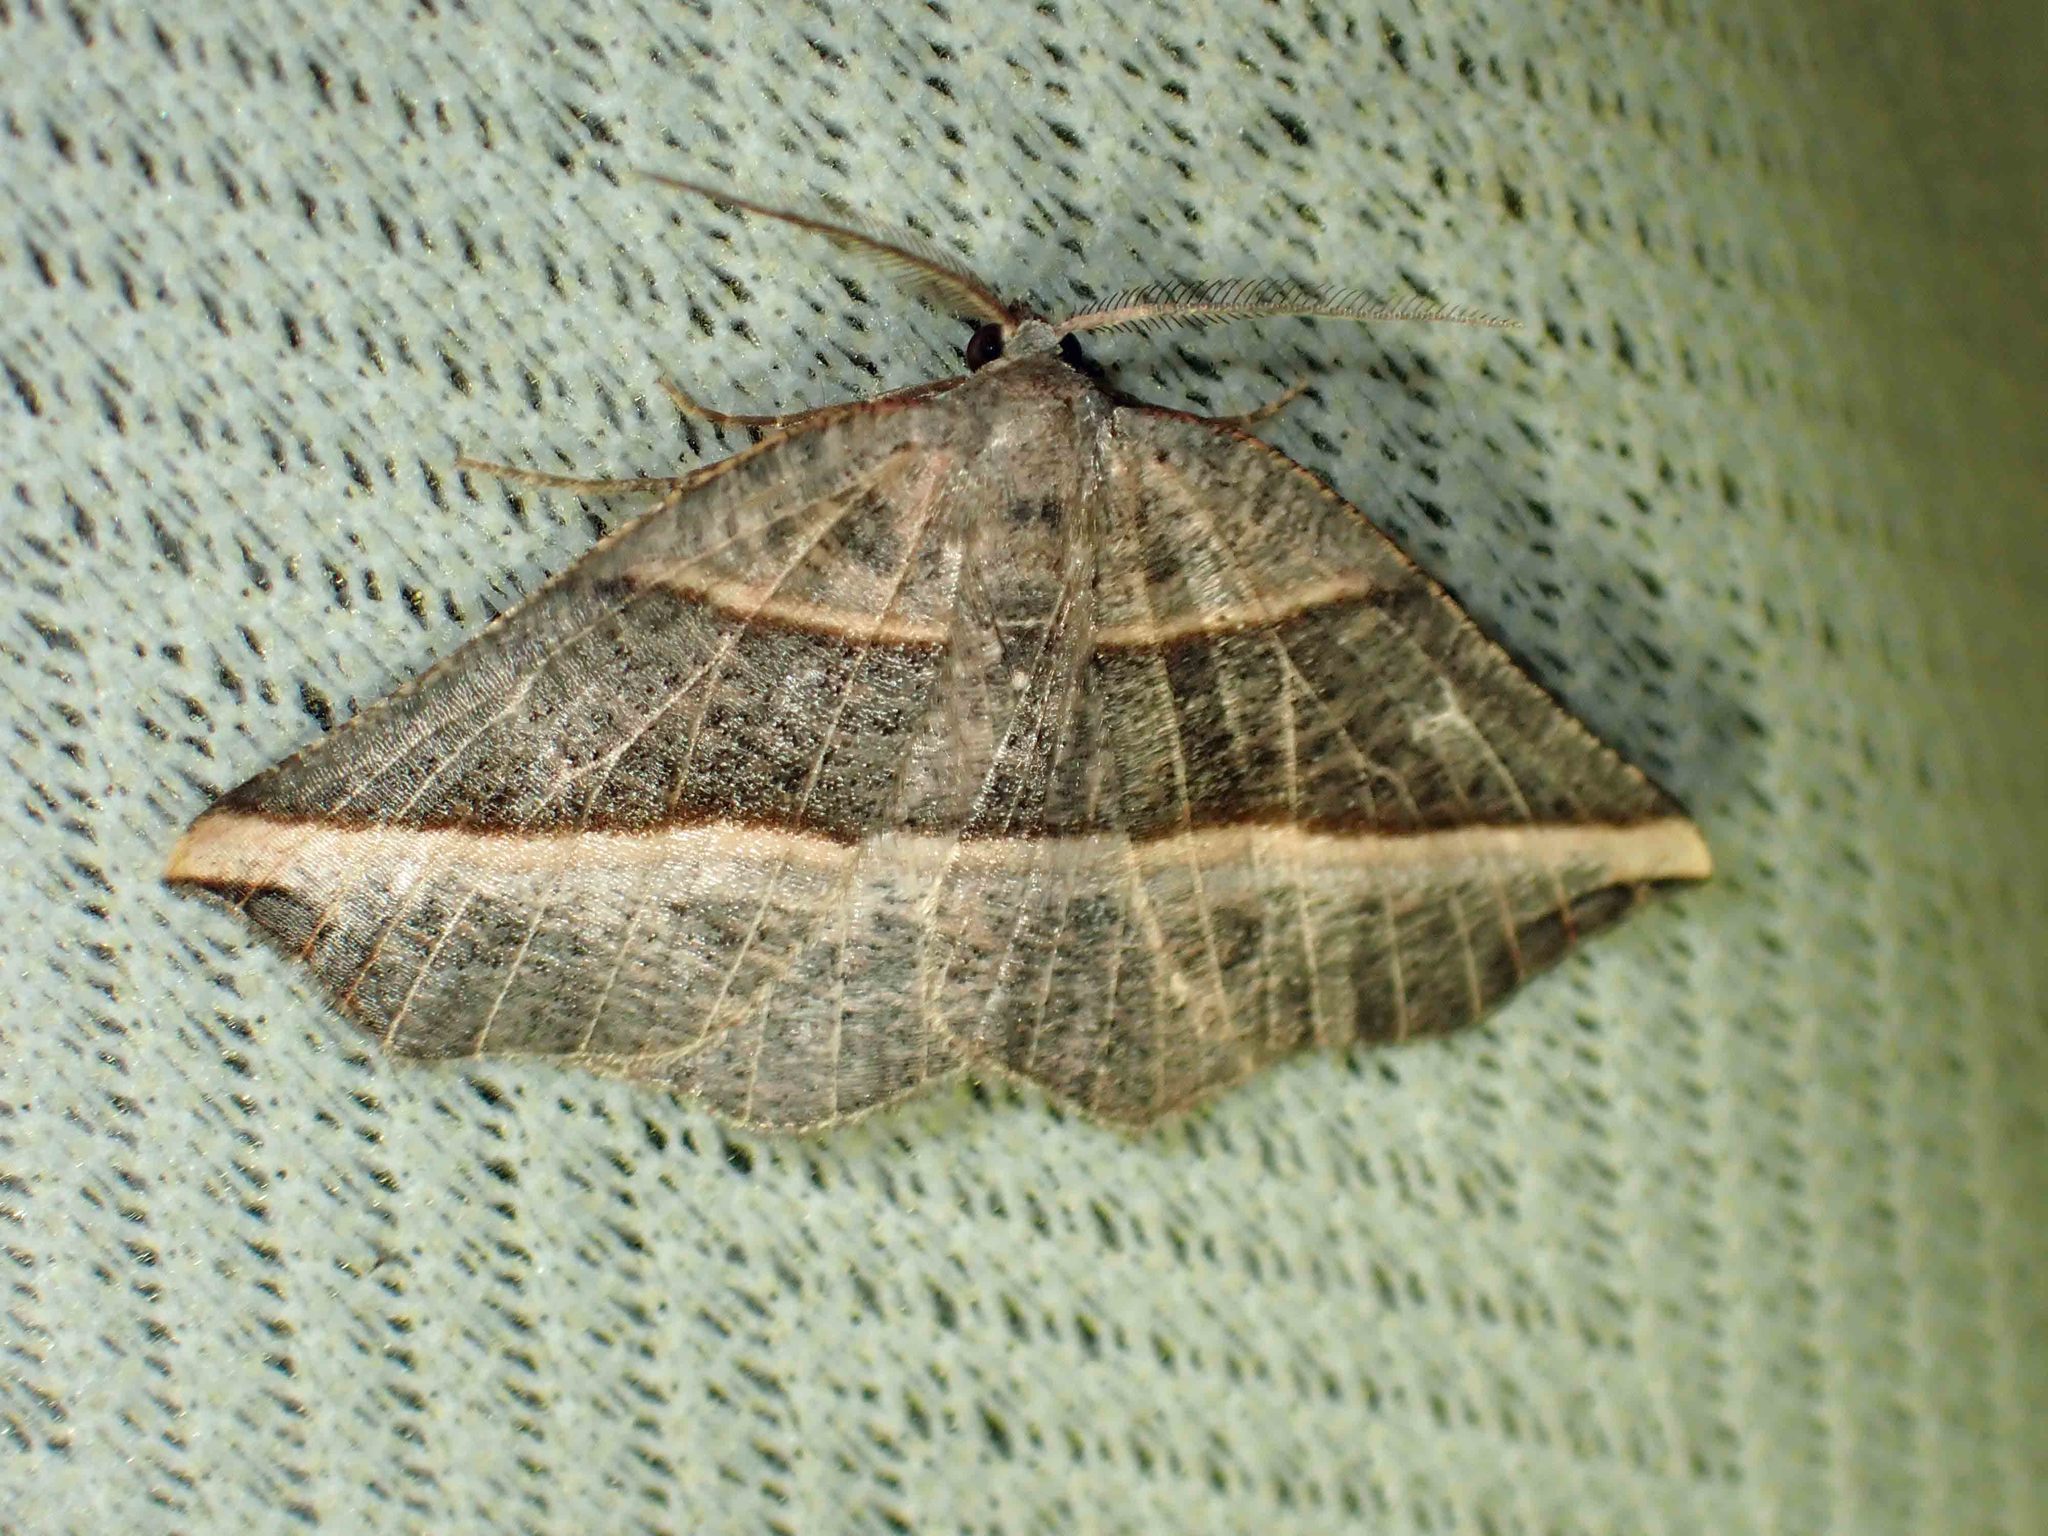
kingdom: Animalia
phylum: Arthropoda
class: Insecta
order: Lepidoptera
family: Geometridae
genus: Metanema
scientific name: Metanema determinata
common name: Dark metanema
